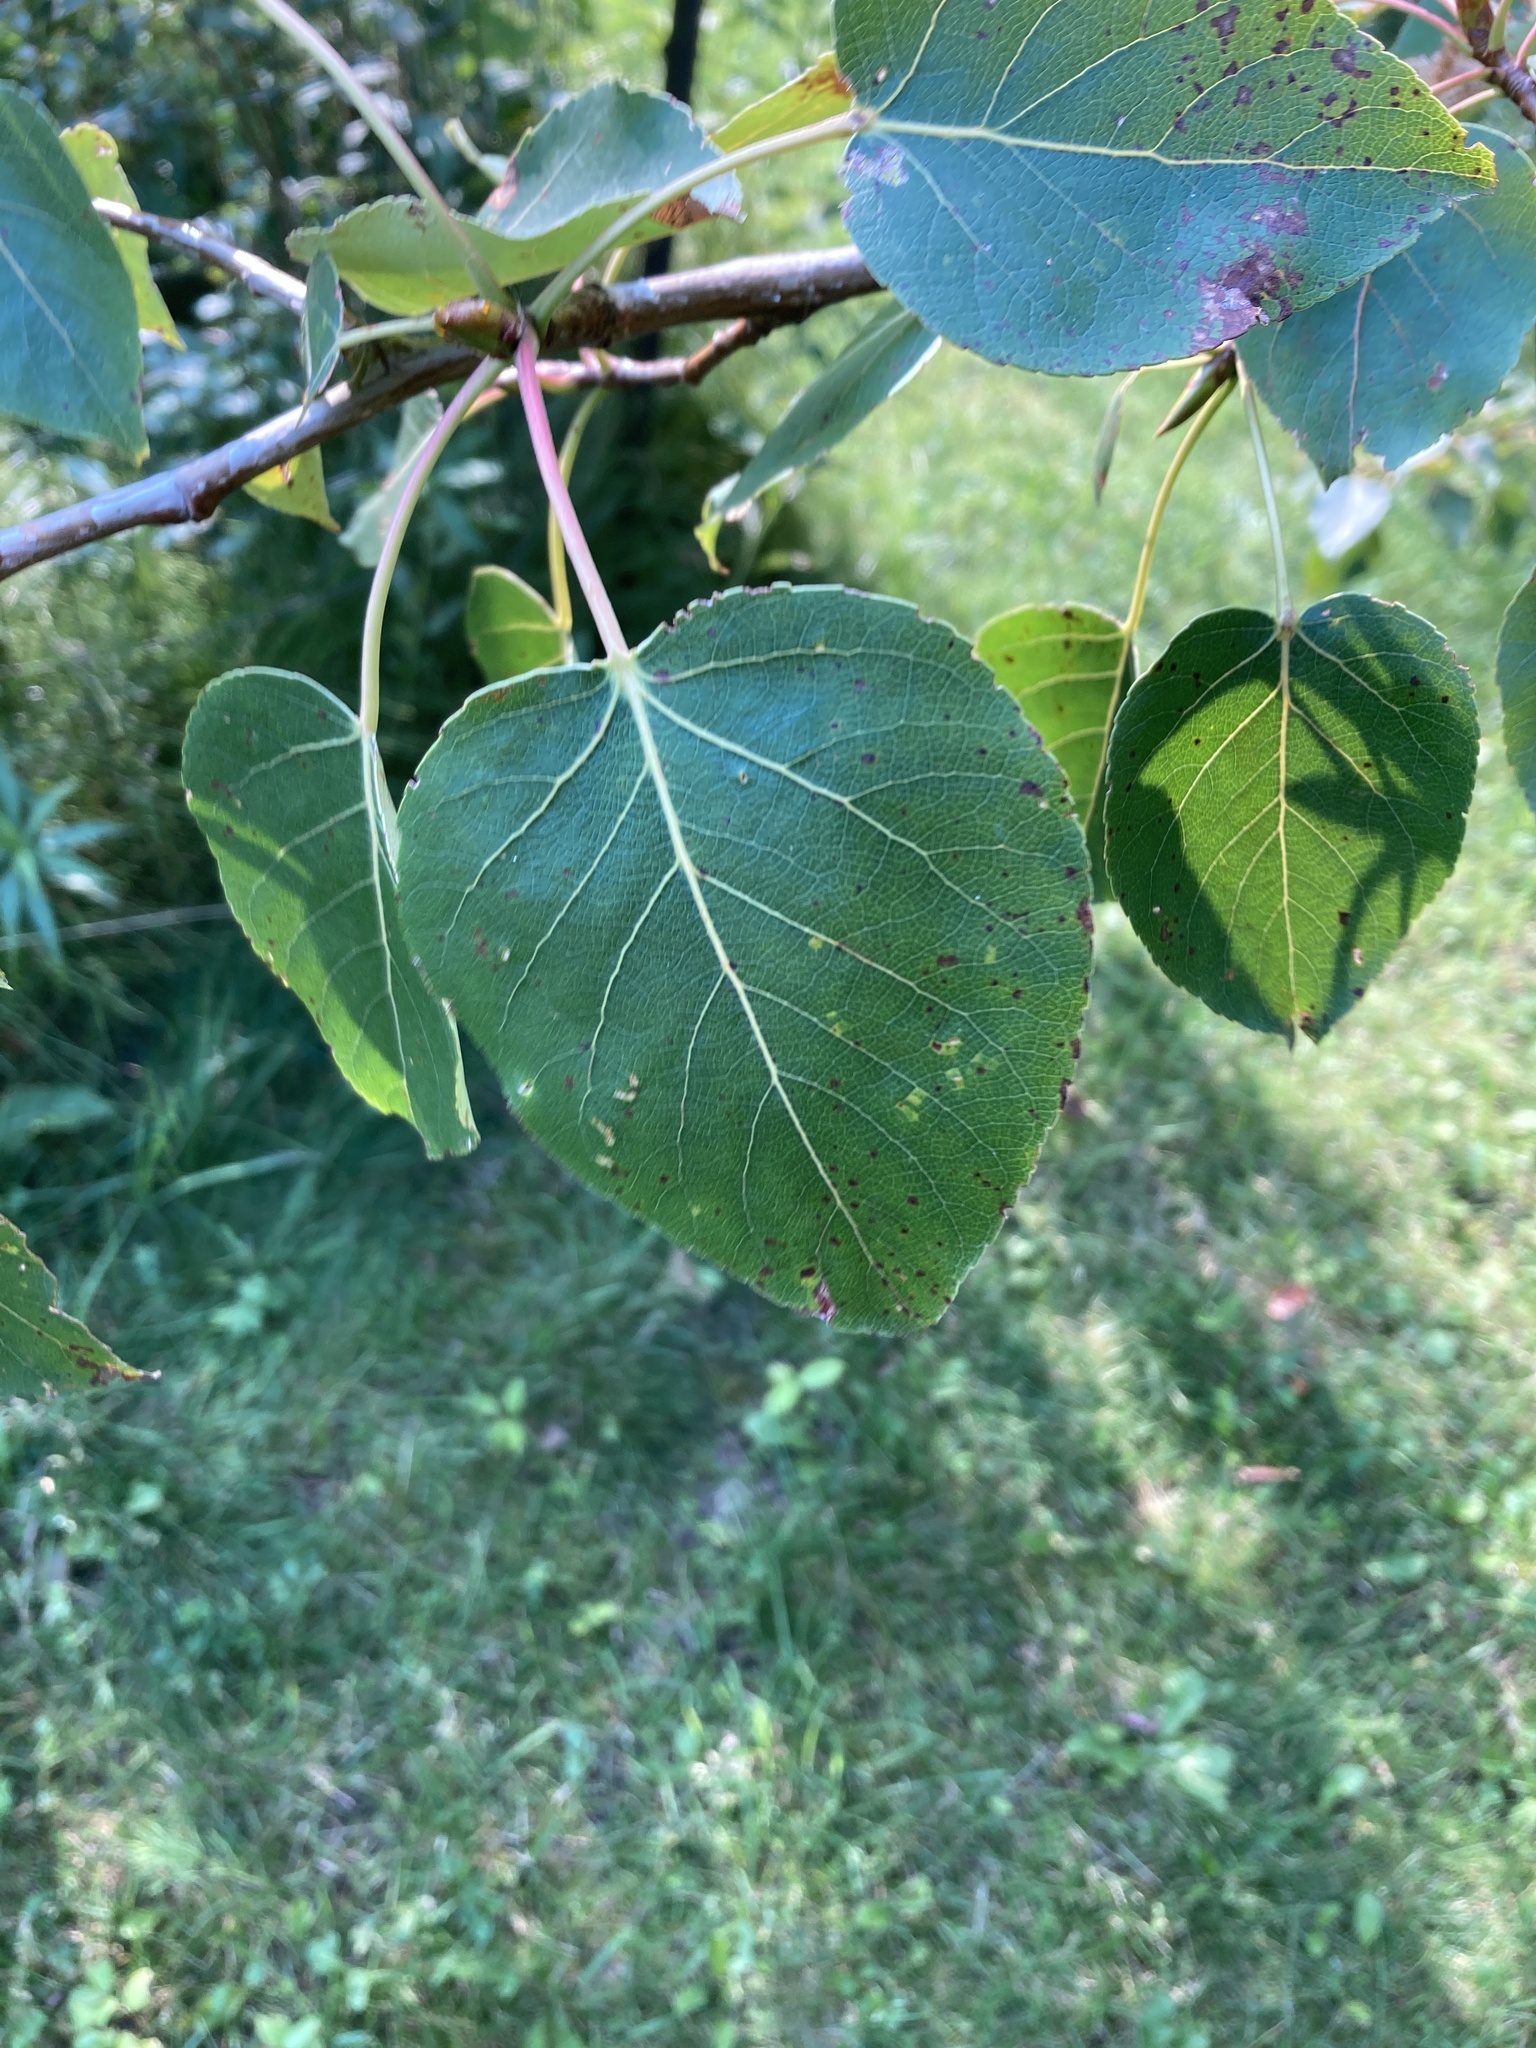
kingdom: Plantae
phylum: Tracheophyta
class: Magnoliopsida
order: Malpighiales
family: Salicaceae
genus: Populus
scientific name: Populus tremuloides
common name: Quaking aspen
